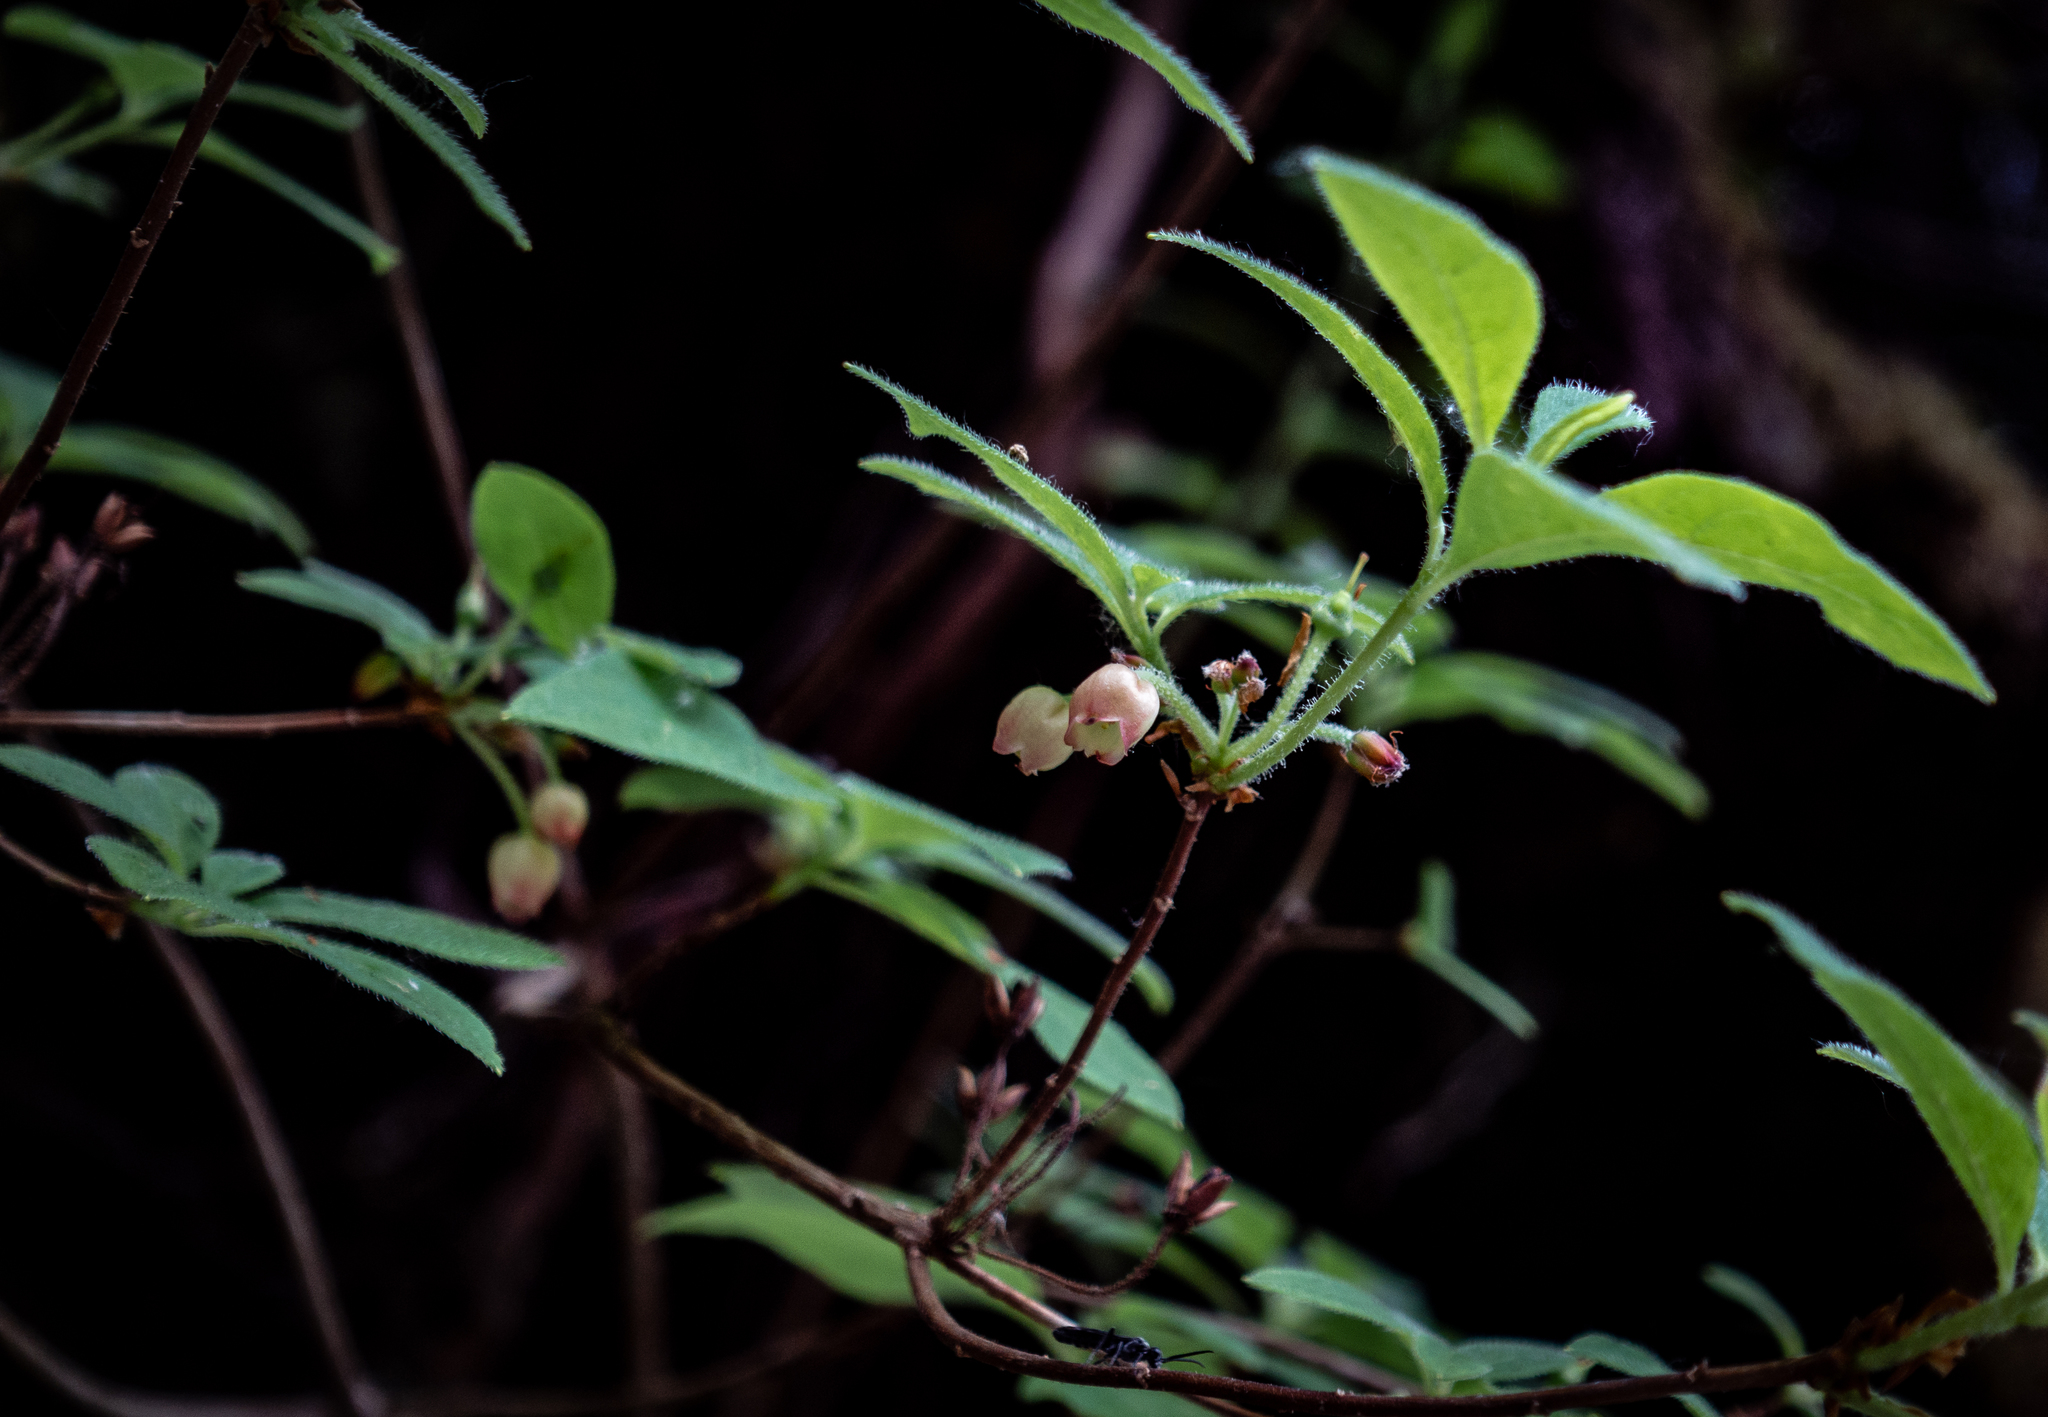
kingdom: Plantae
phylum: Tracheophyta
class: Magnoliopsida
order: Ericales
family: Ericaceae
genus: Rhododendron
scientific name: Rhododendron menziesii
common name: Pacific menziesia
